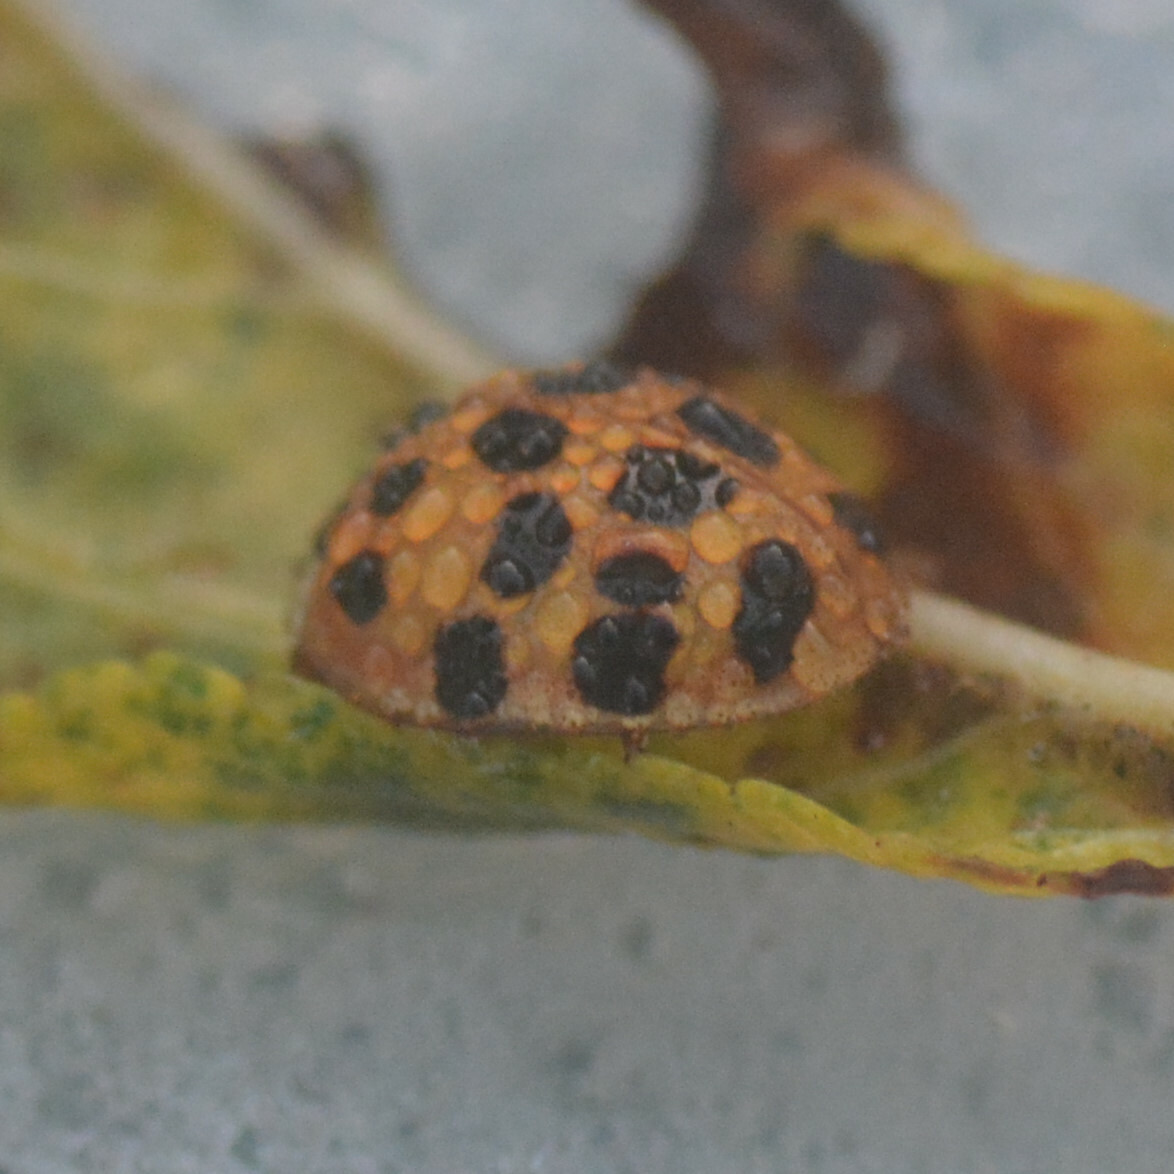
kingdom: Animalia
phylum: Arthropoda
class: Insecta
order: Coleoptera
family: Coccinellidae
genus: Harmonia
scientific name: Harmonia axyridis
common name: Harlequin ladybird
